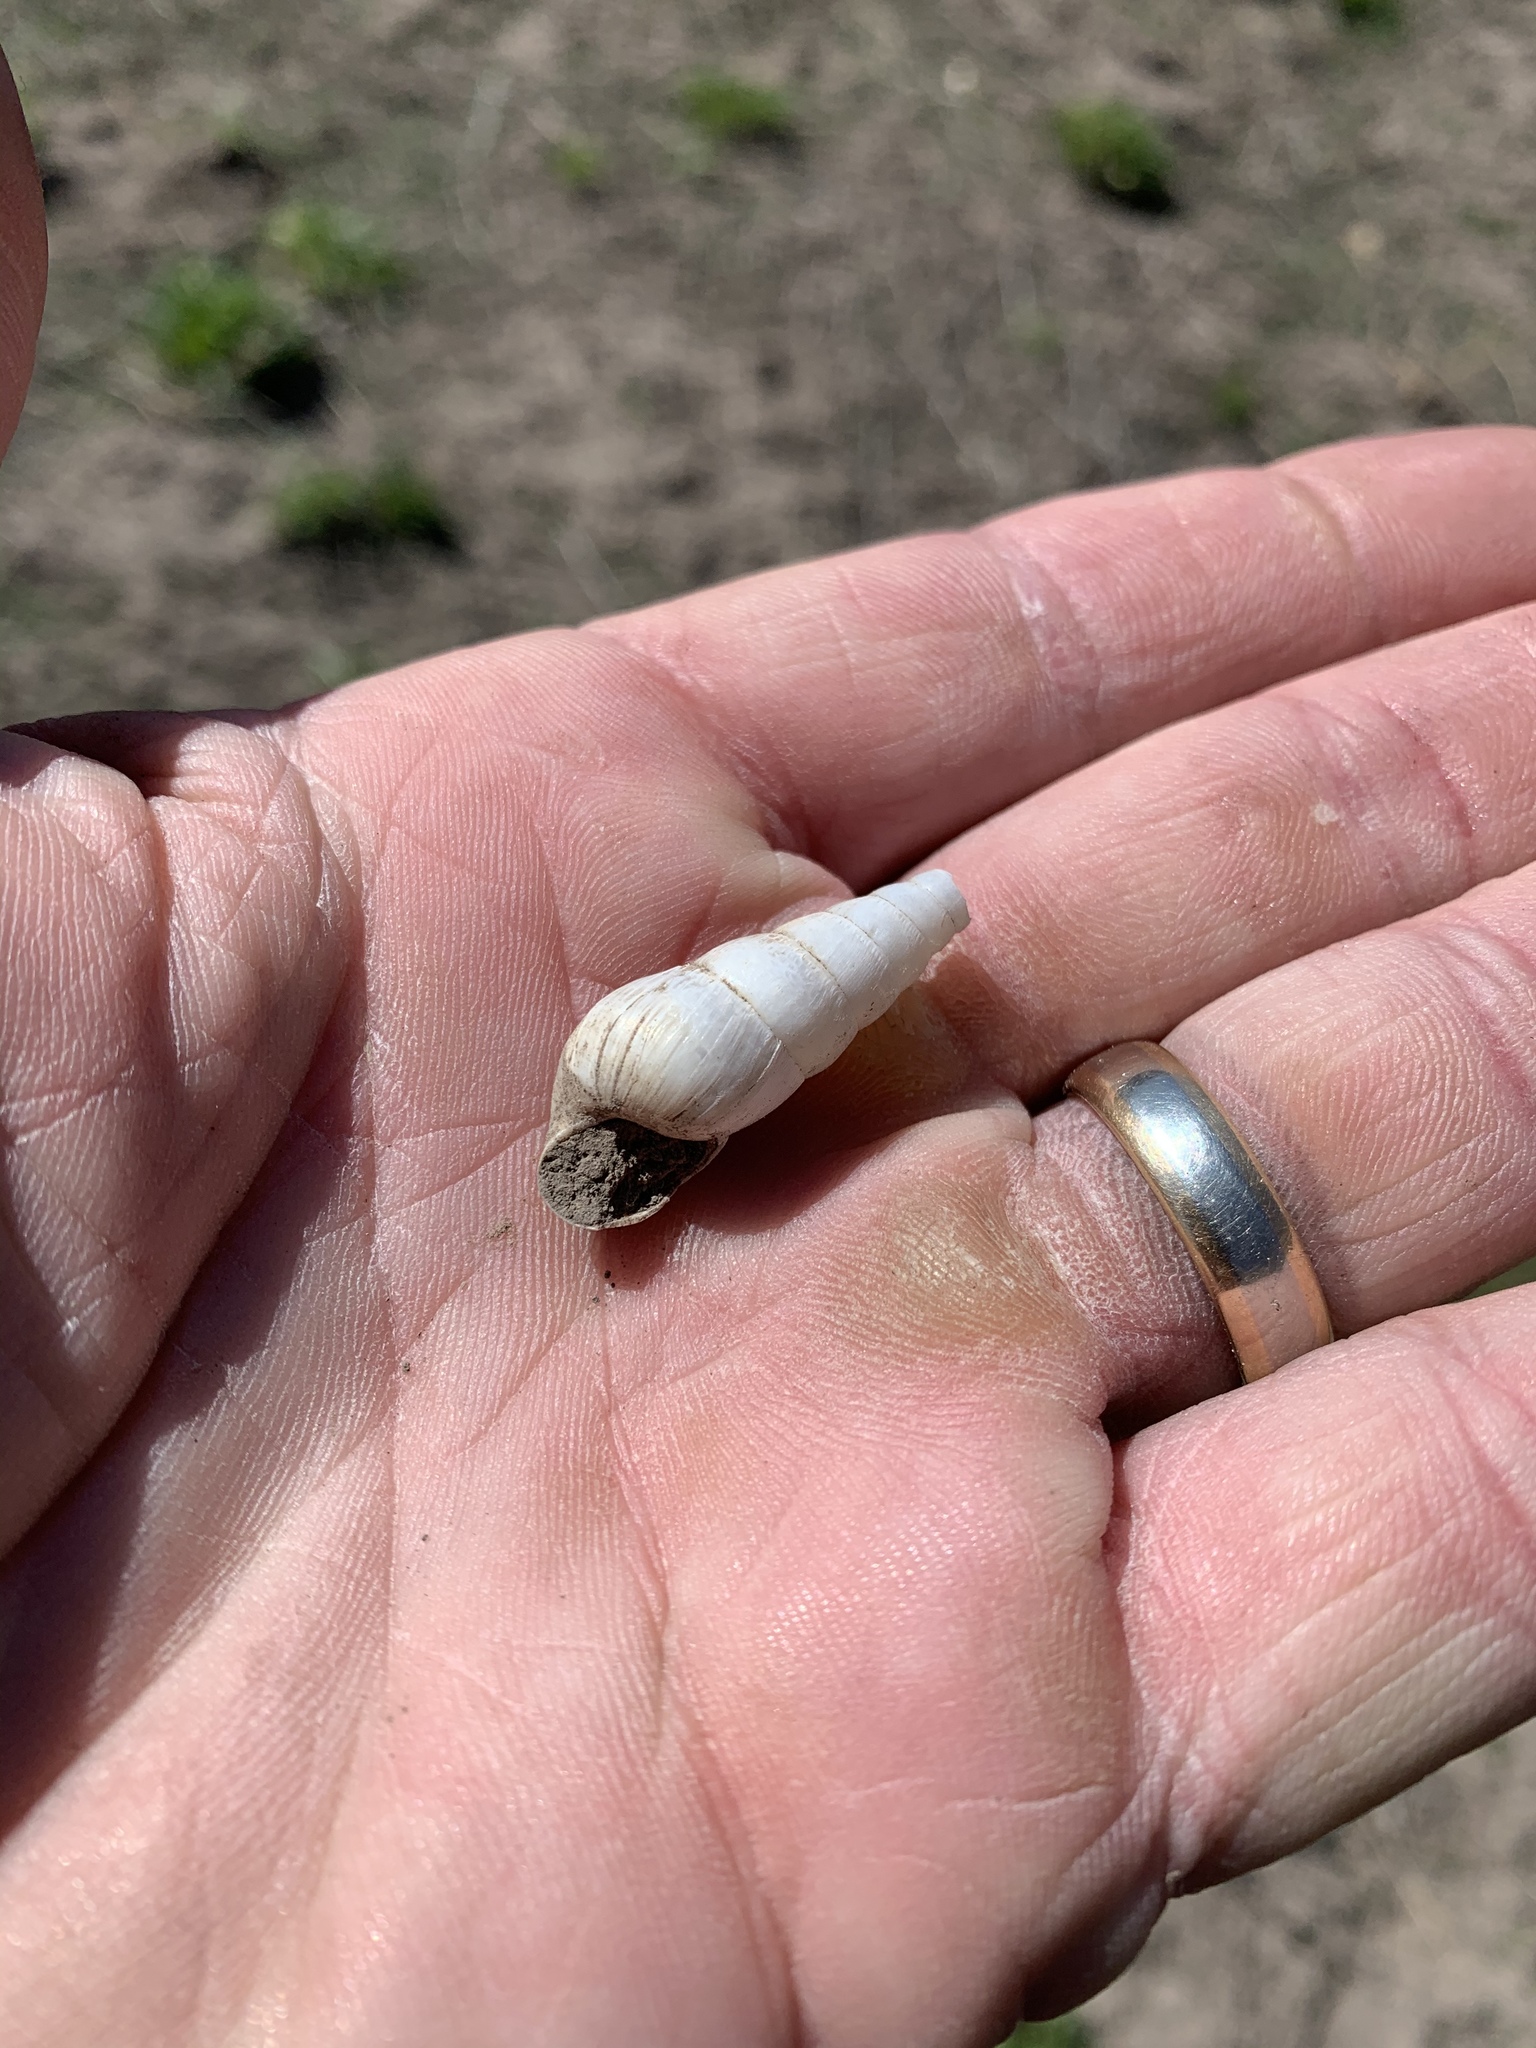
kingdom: Animalia
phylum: Mollusca
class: Gastropoda
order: Stylommatophora
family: Achatinidae
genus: Rumina
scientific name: Rumina decollata
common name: Decollate snail
